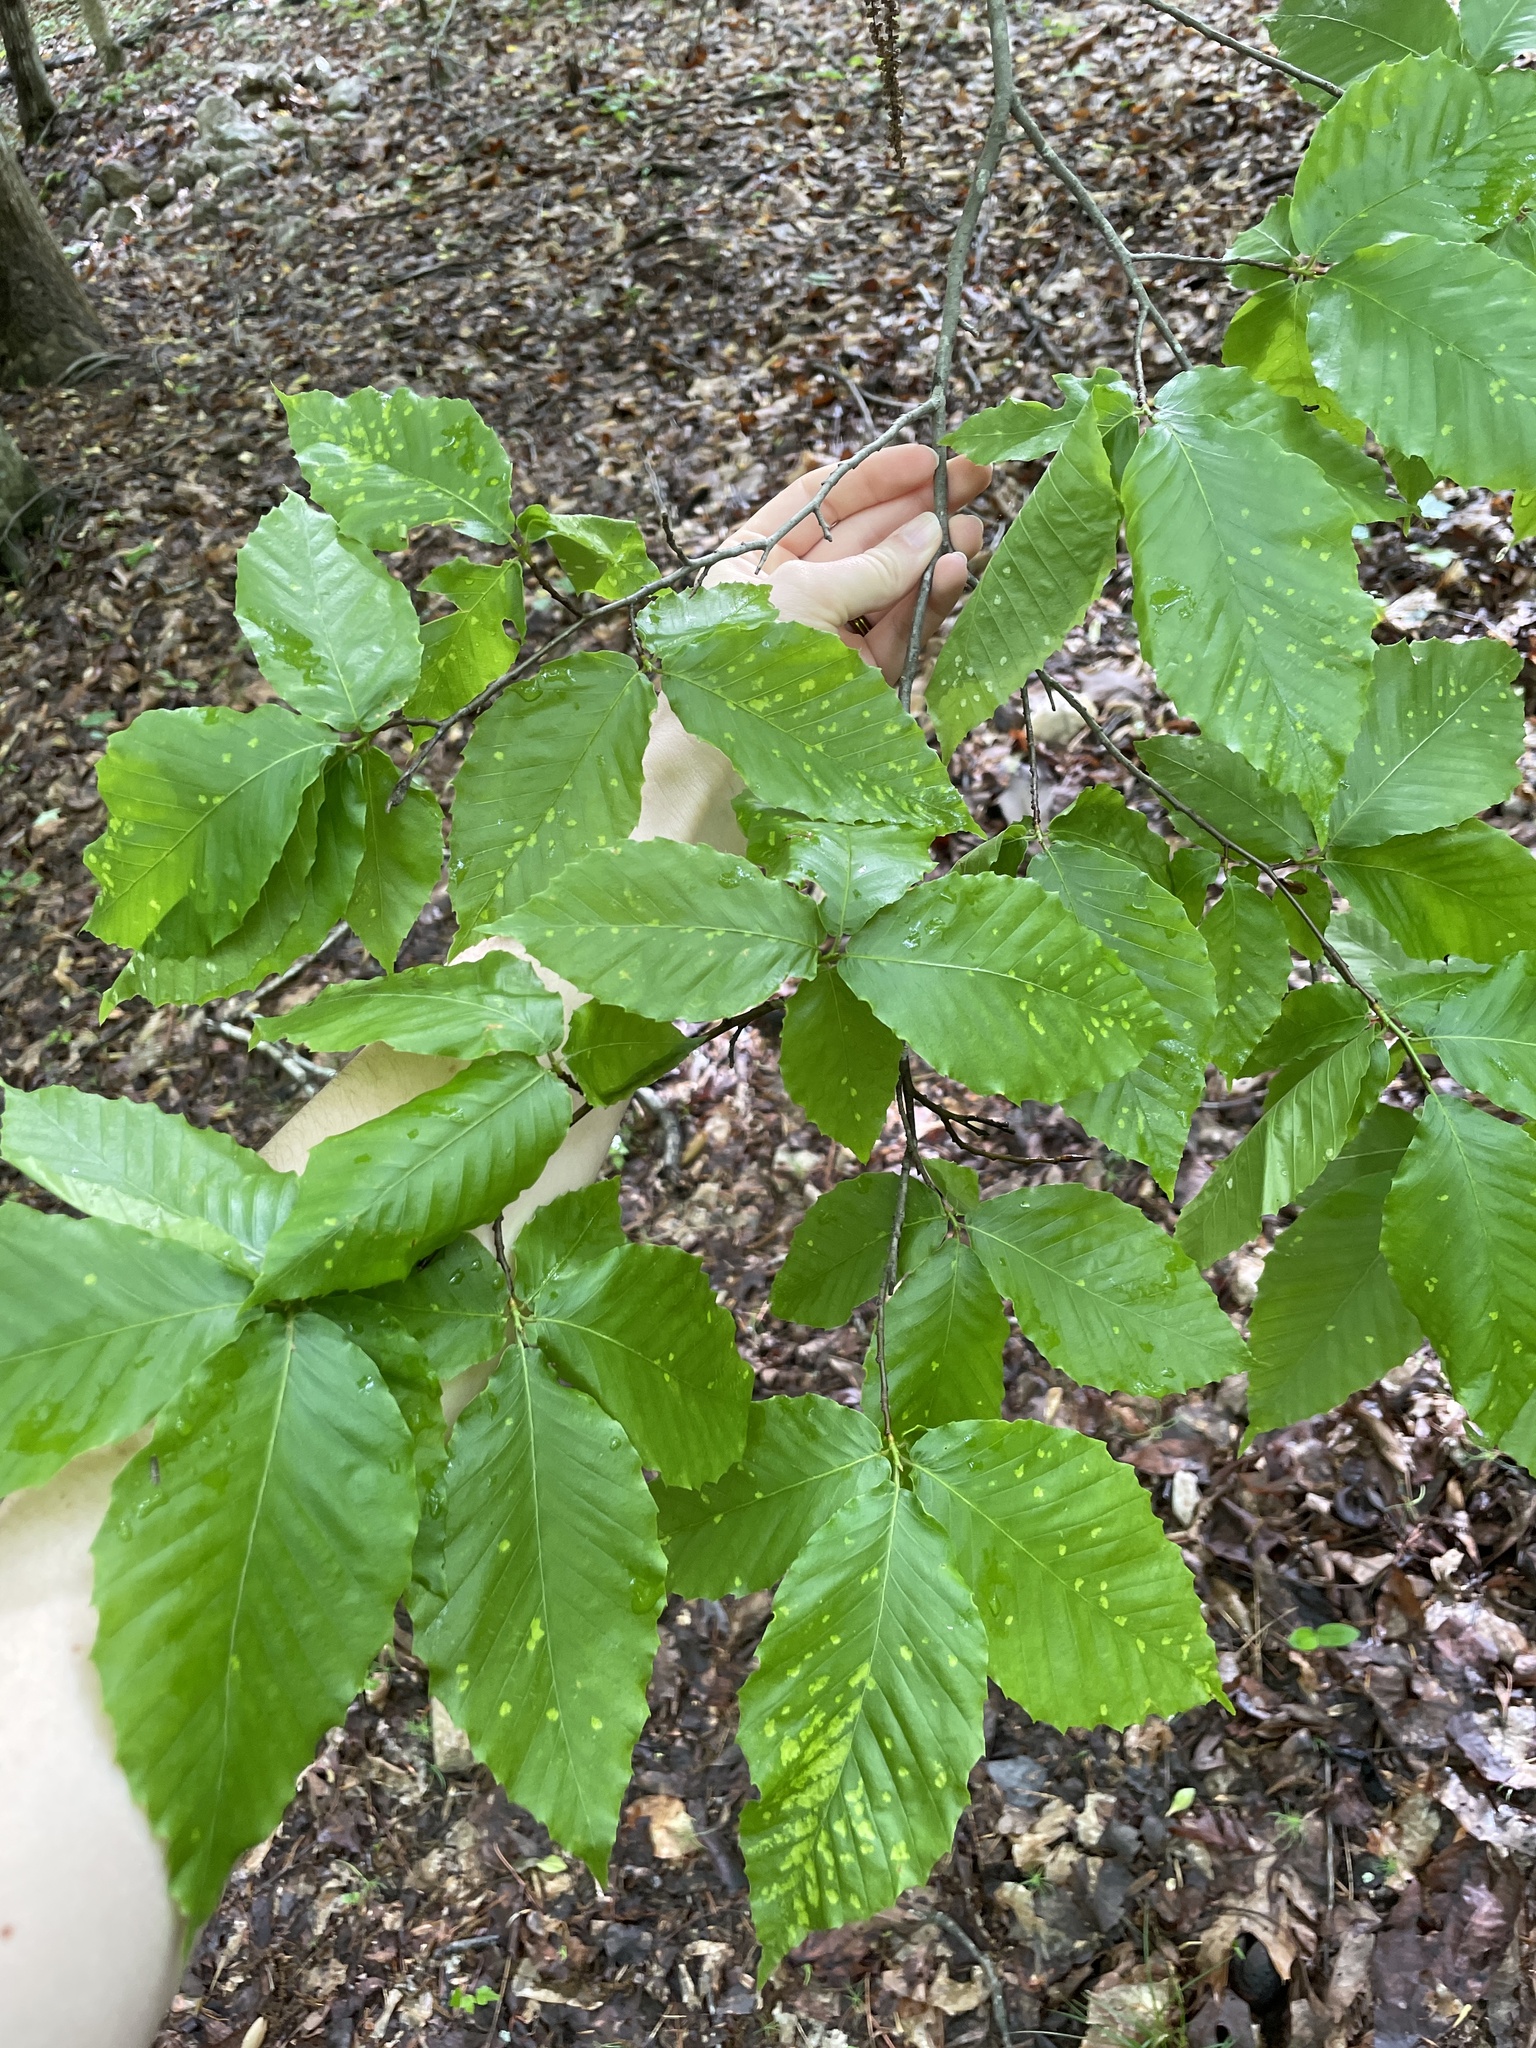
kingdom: Plantae
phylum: Tracheophyta
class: Magnoliopsida
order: Fagales
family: Fagaceae
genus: Fagus
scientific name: Fagus grandifolia
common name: American beech
